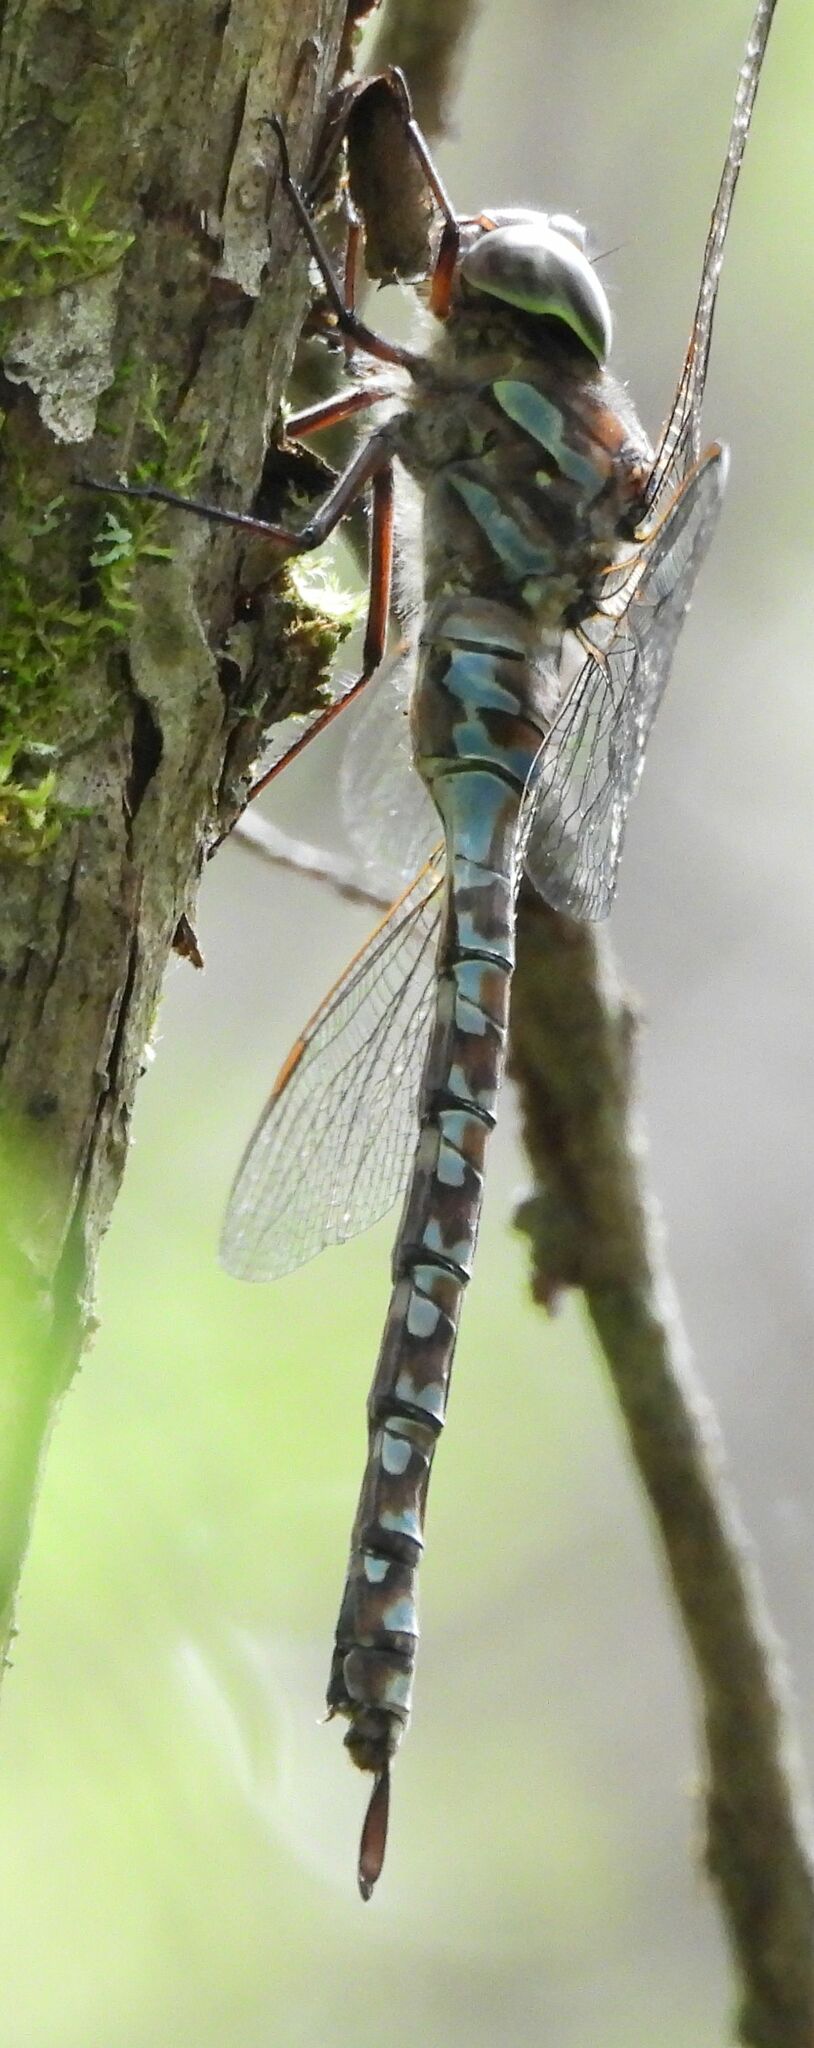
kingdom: Animalia
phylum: Arthropoda
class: Insecta
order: Odonata
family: Aeshnidae
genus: Aeshna
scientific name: Aeshna canadensis
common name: Canada darner
